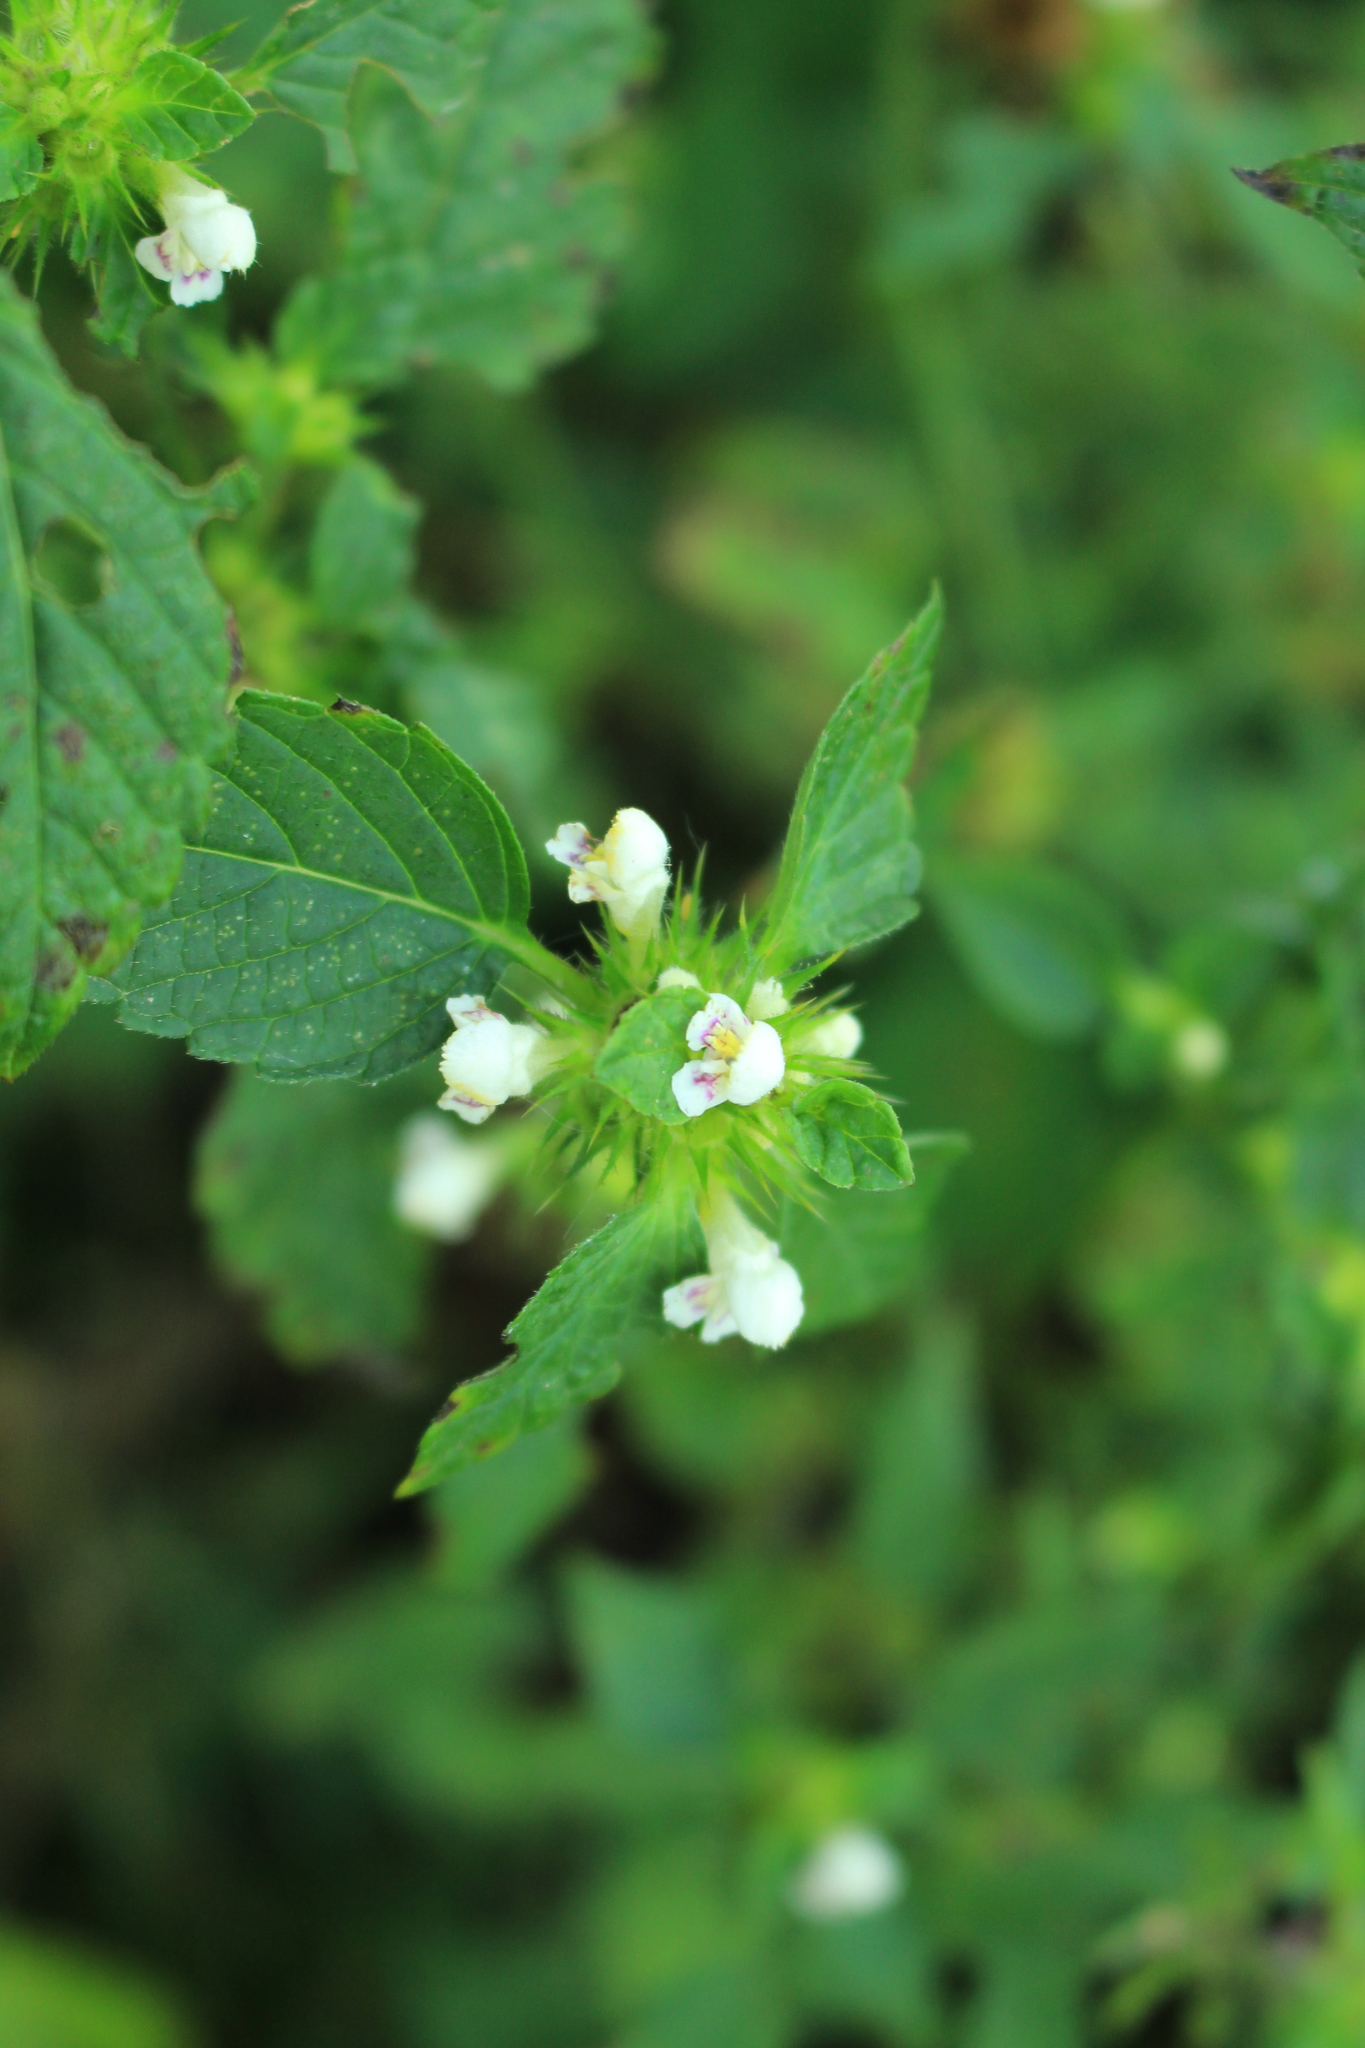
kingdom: Plantae
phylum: Tracheophyta
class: Magnoliopsida
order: Lamiales
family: Lamiaceae
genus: Galeopsis
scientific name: Galeopsis tetrahit
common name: Common hemp-nettle
